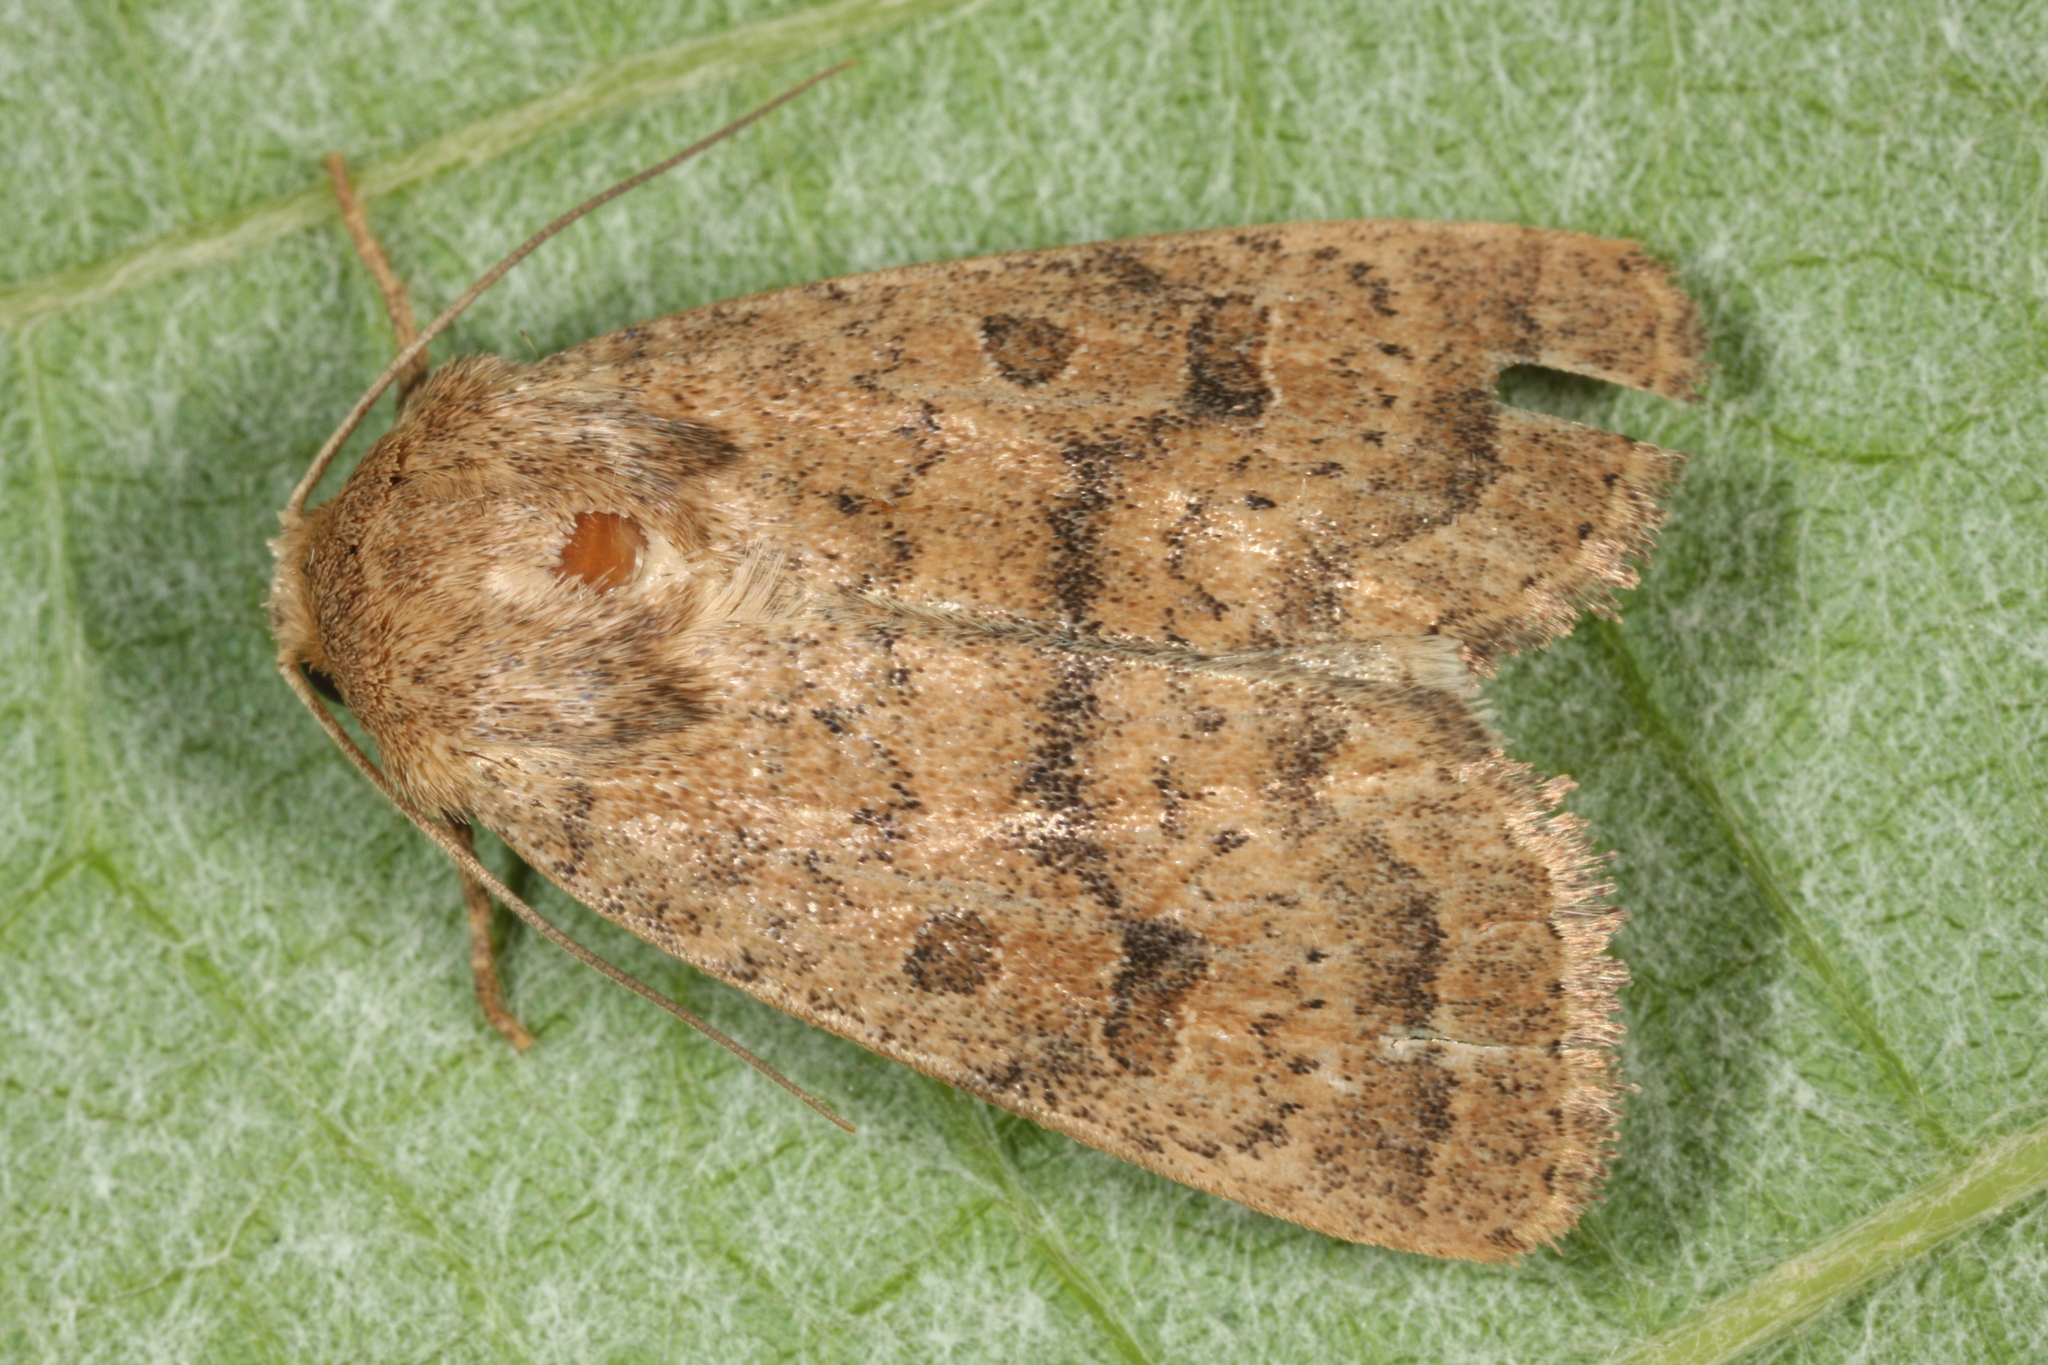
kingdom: Animalia
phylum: Arthropoda
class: Insecta
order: Lepidoptera
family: Noctuidae
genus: Hoplodrina
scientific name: Hoplodrina octogenaria
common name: Uncertain
